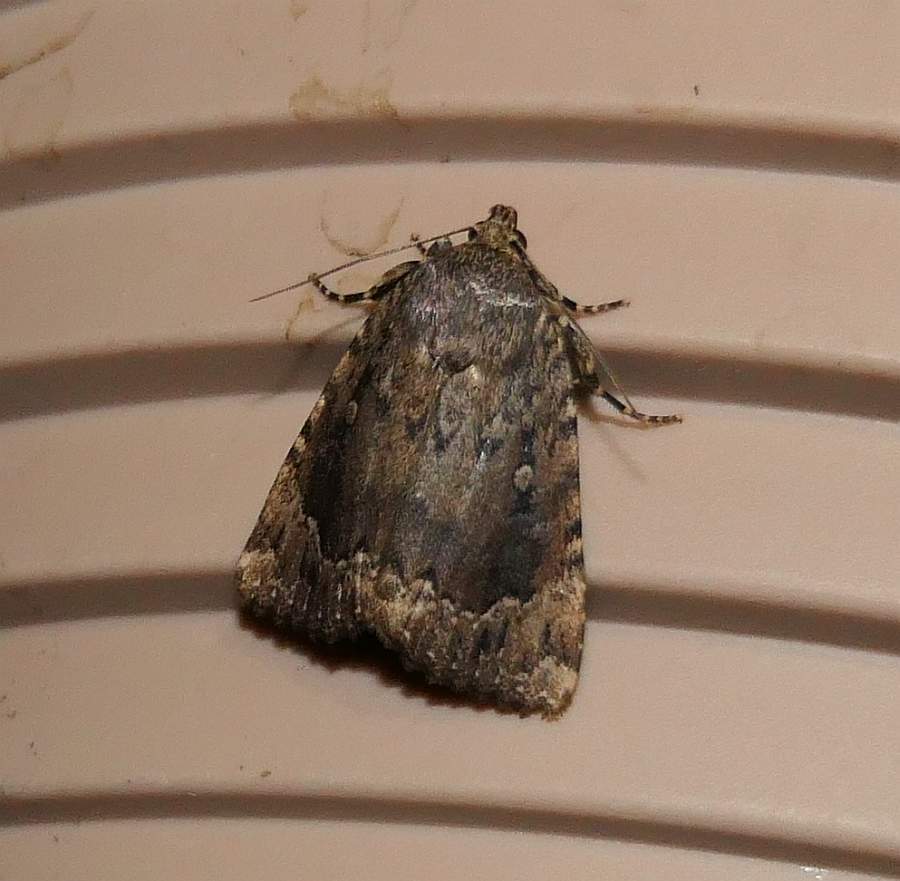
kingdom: Animalia
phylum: Arthropoda
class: Insecta
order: Lepidoptera
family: Noctuidae
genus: Amphipyra
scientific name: Amphipyra pyramidoides
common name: American copper underwing
